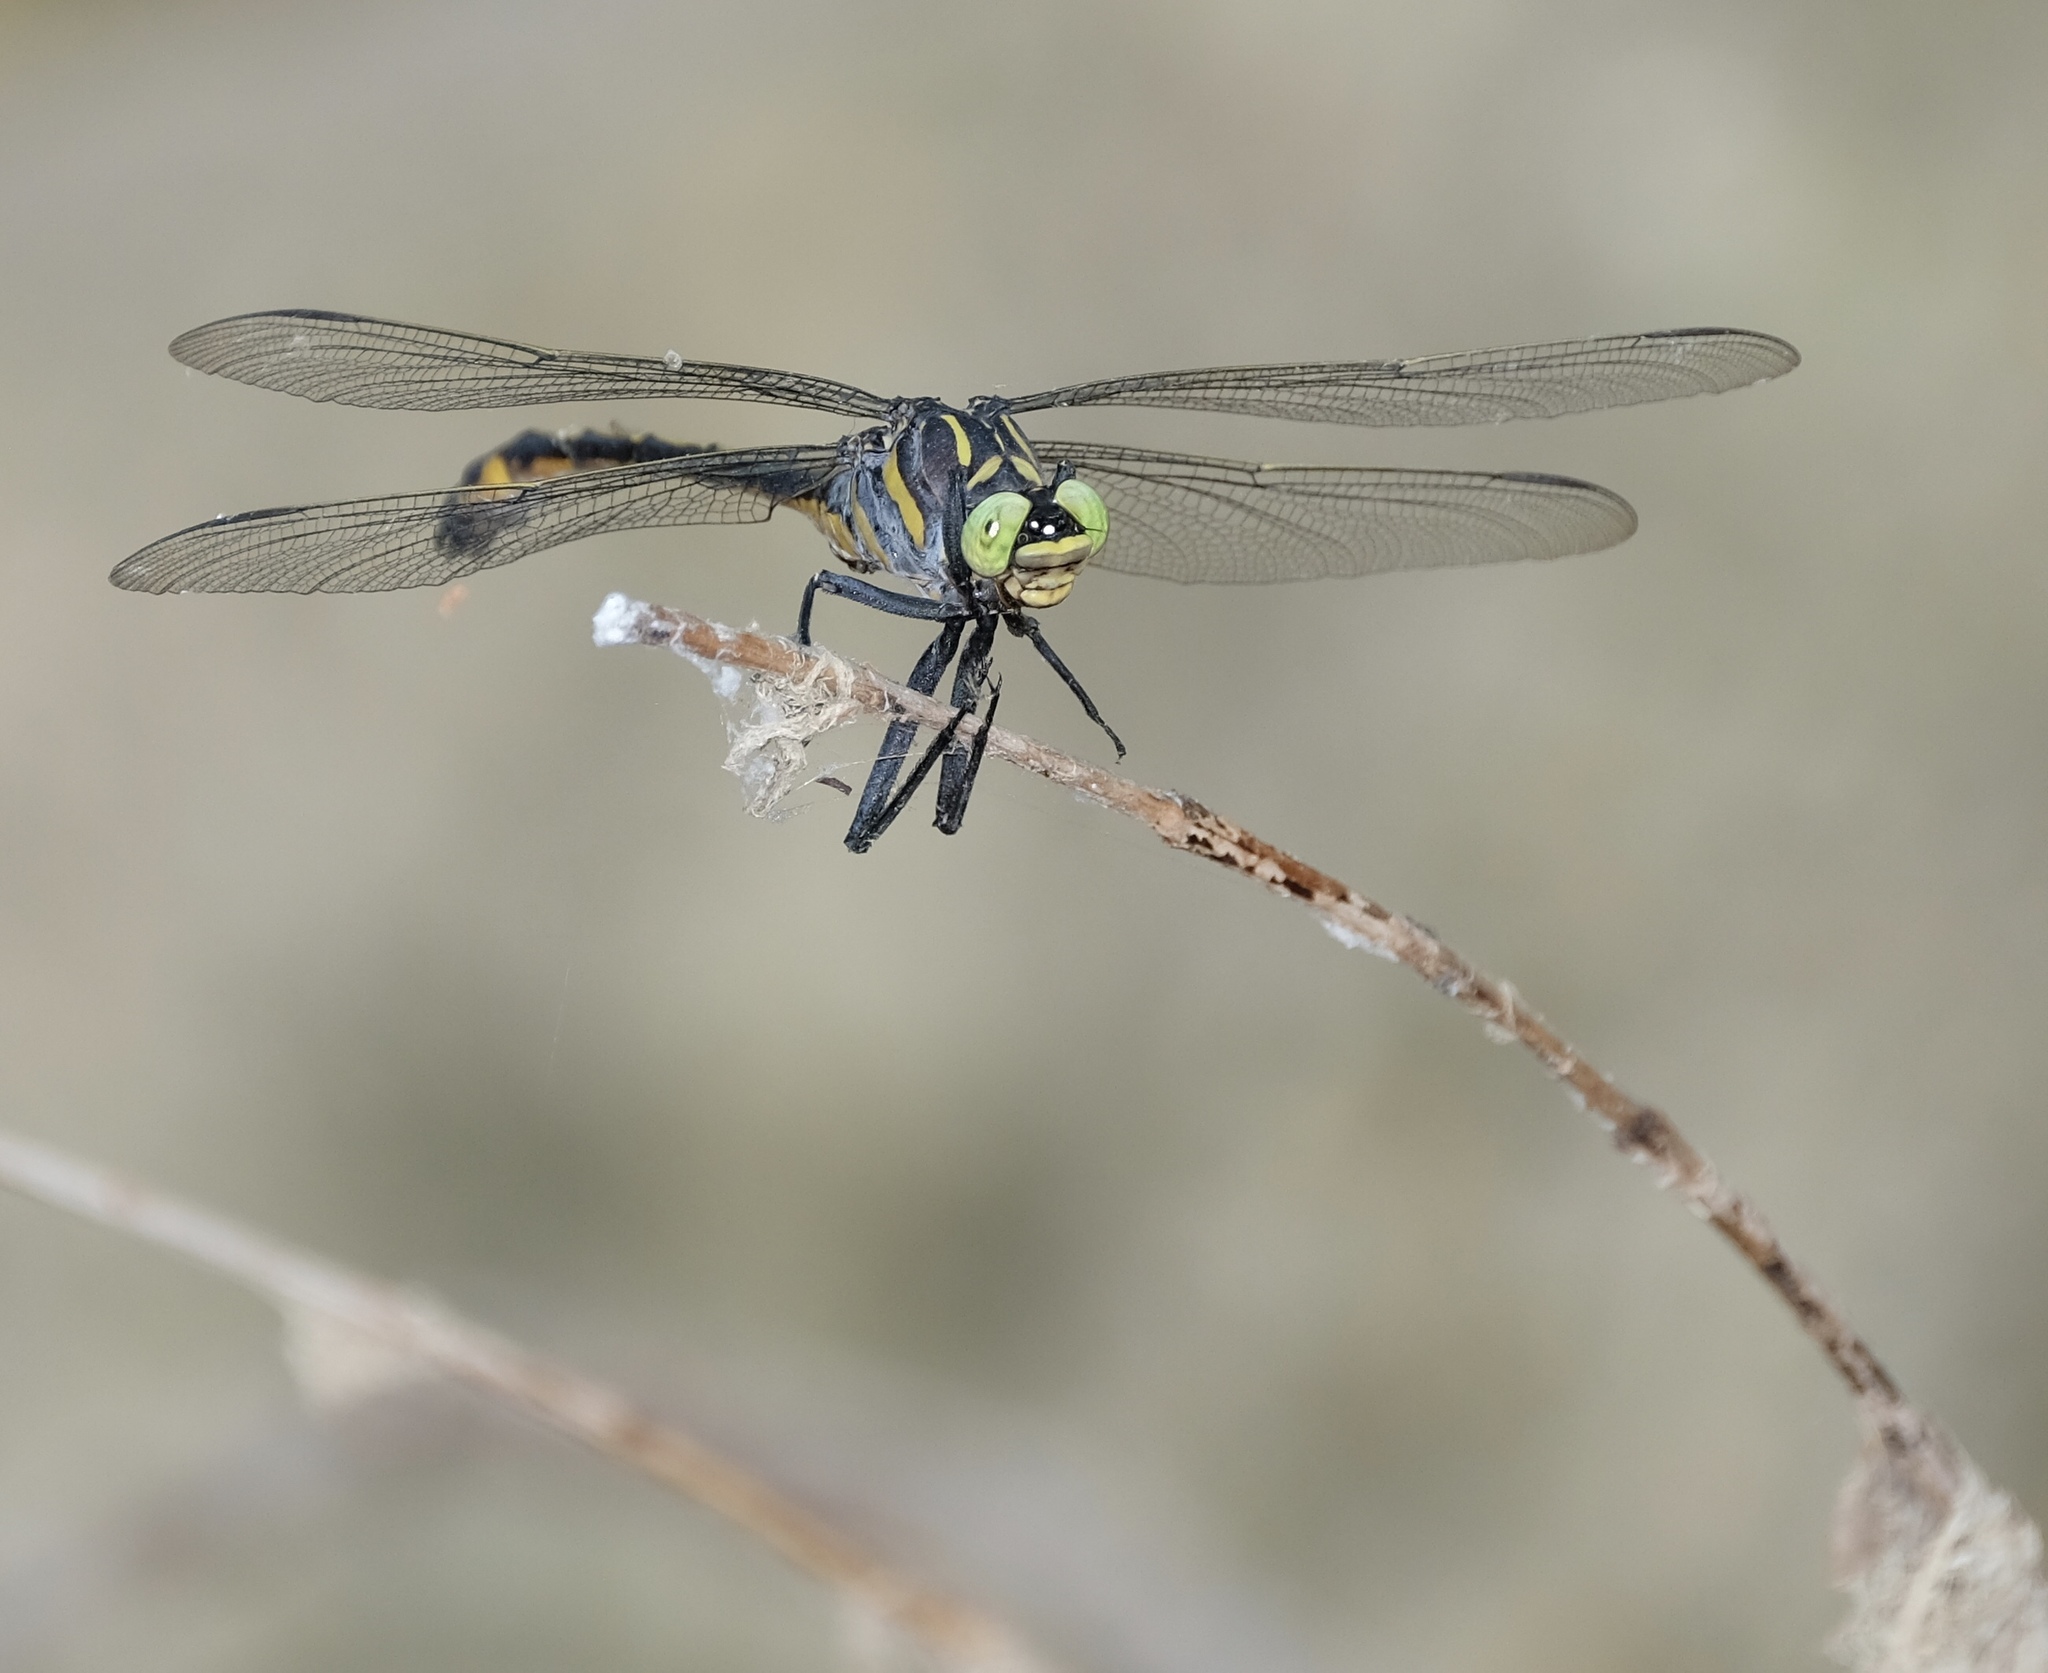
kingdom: Animalia
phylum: Arthropoda
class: Insecta
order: Odonata
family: Gomphidae
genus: Hagenius
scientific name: Hagenius brevistylus
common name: Dragonhunter
